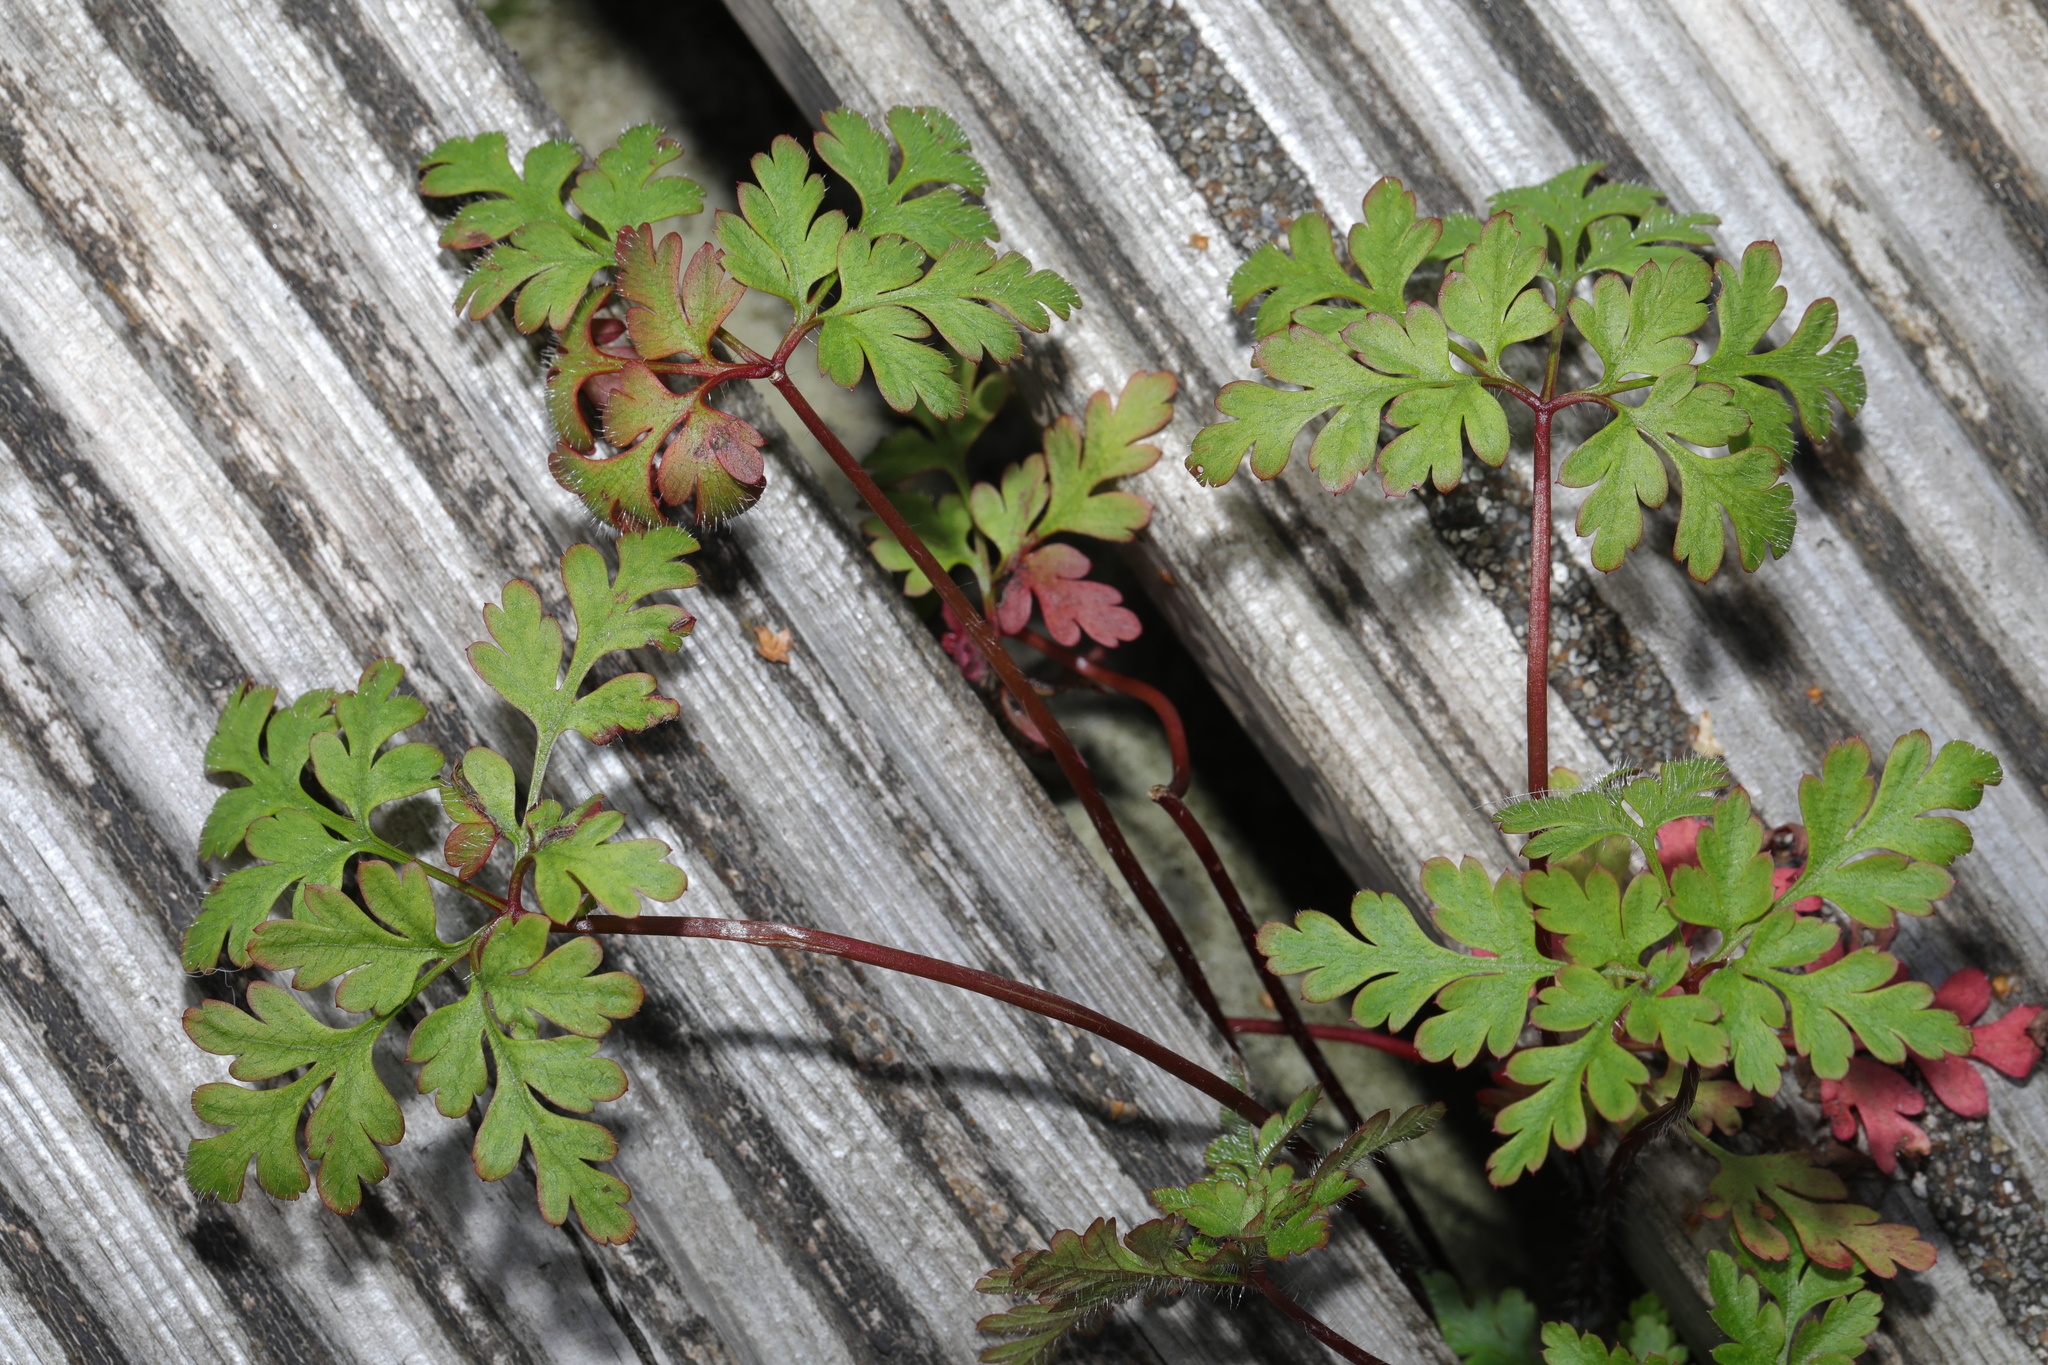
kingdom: Plantae
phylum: Tracheophyta
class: Magnoliopsida
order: Geraniales
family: Geraniaceae
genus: Geranium
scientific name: Geranium robertianum
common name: Herb-robert
